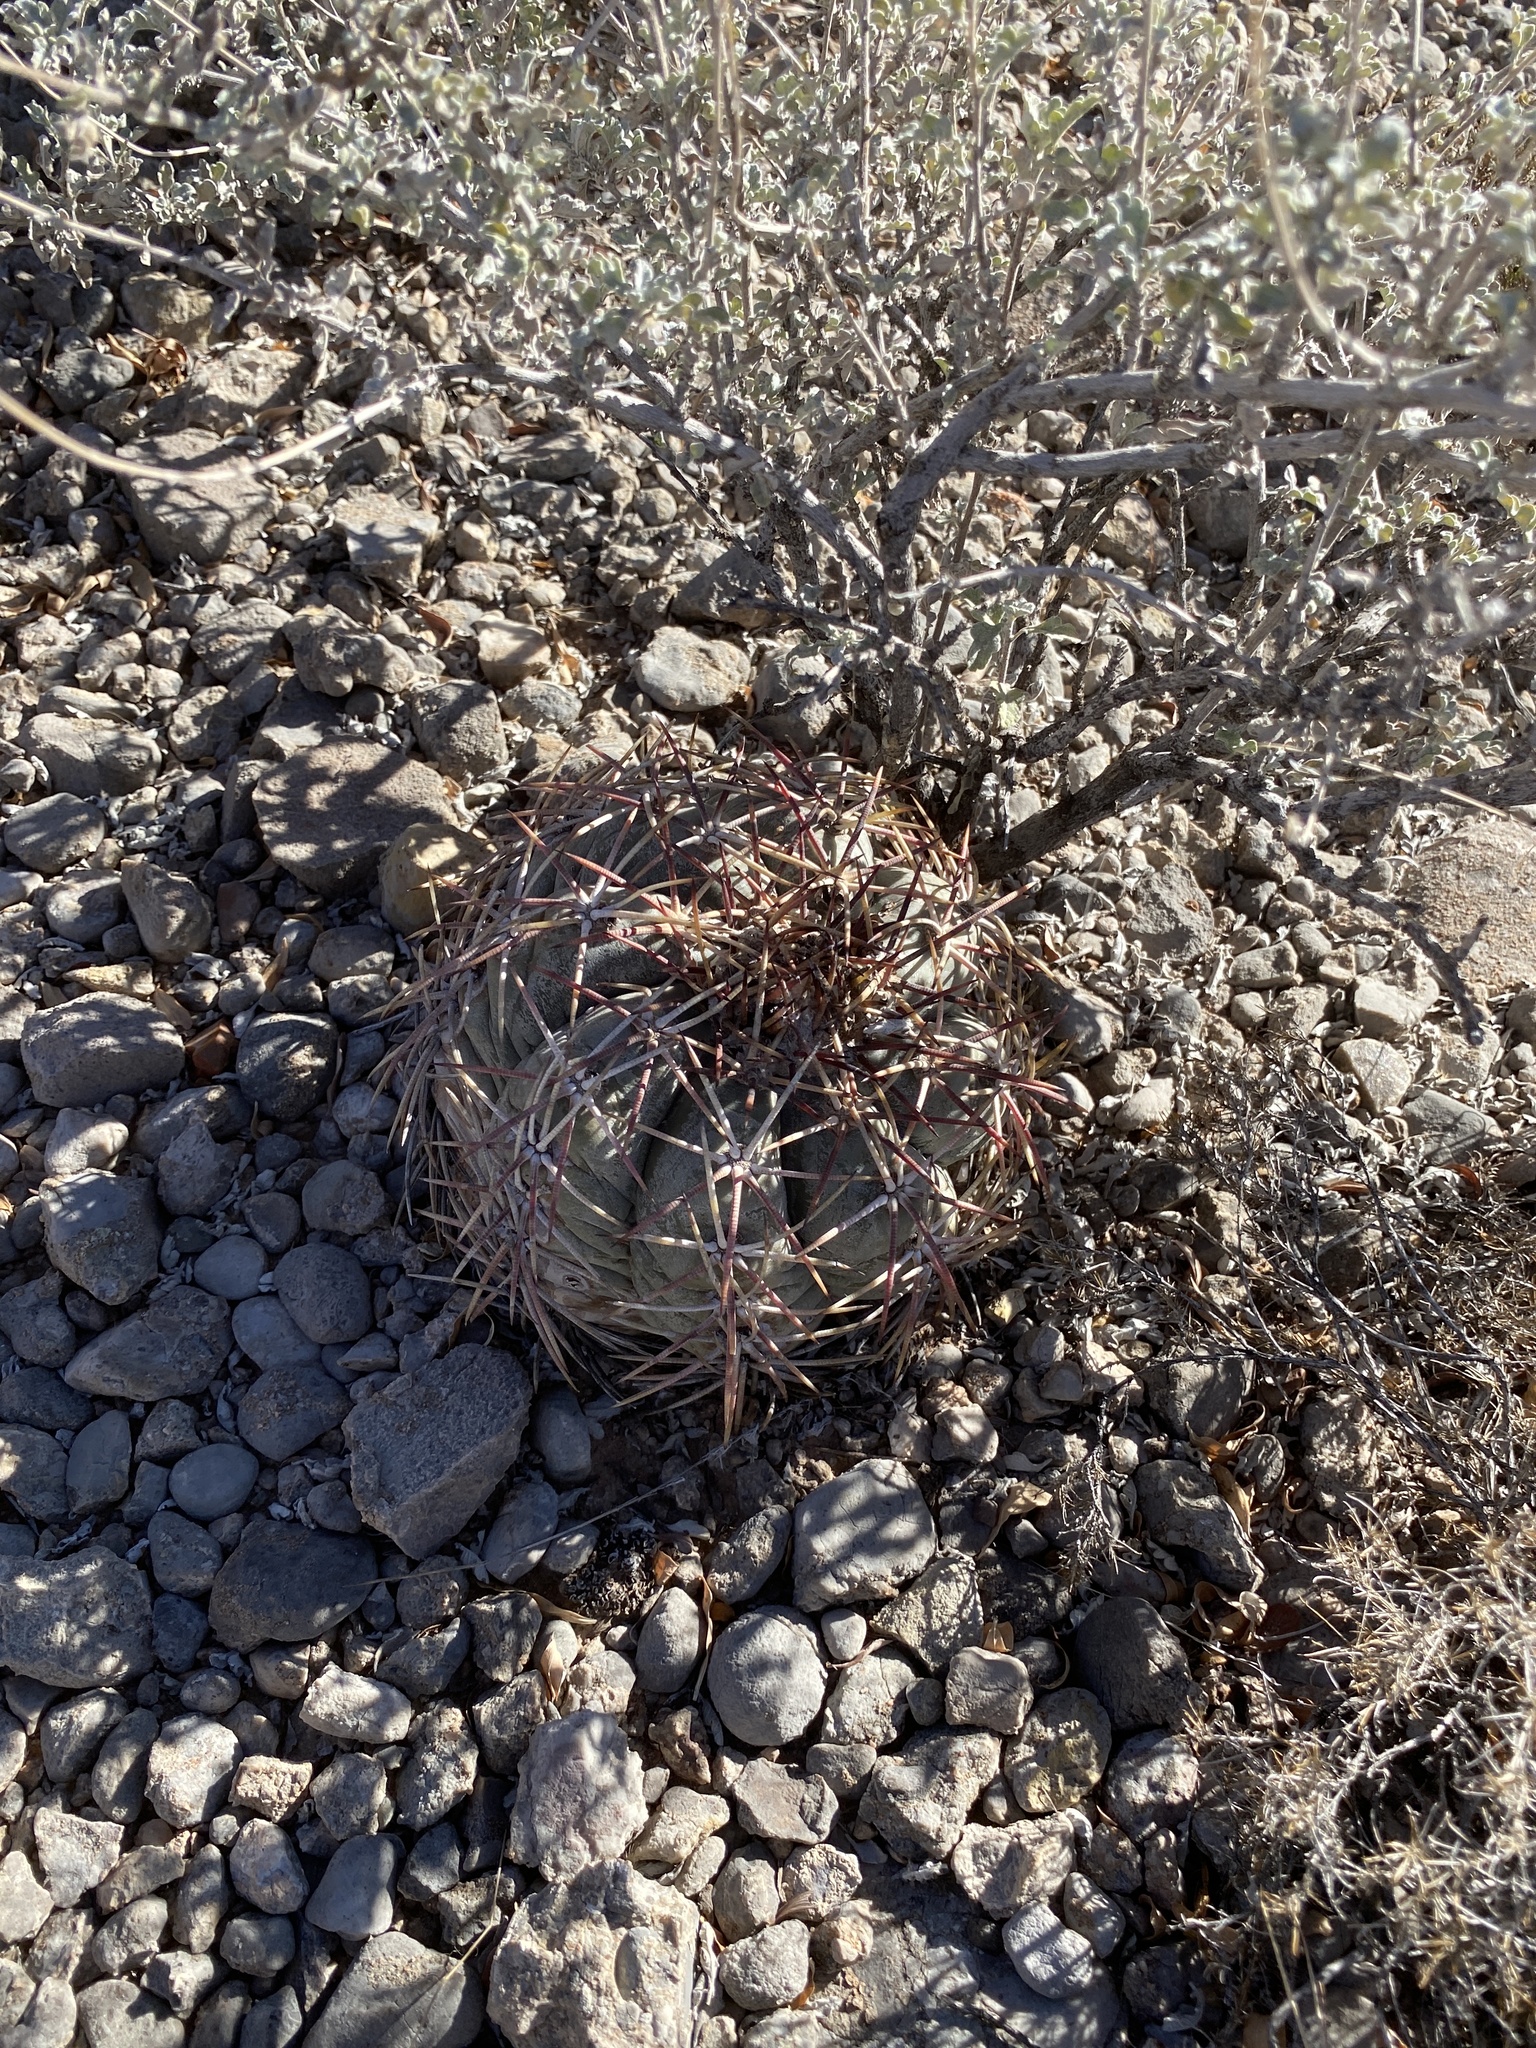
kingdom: Plantae
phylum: Tracheophyta
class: Magnoliopsida
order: Caryophyllales
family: Cactaceae
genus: Echinocactus
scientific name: Echinocactus horizonthalonius
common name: Devilshead
